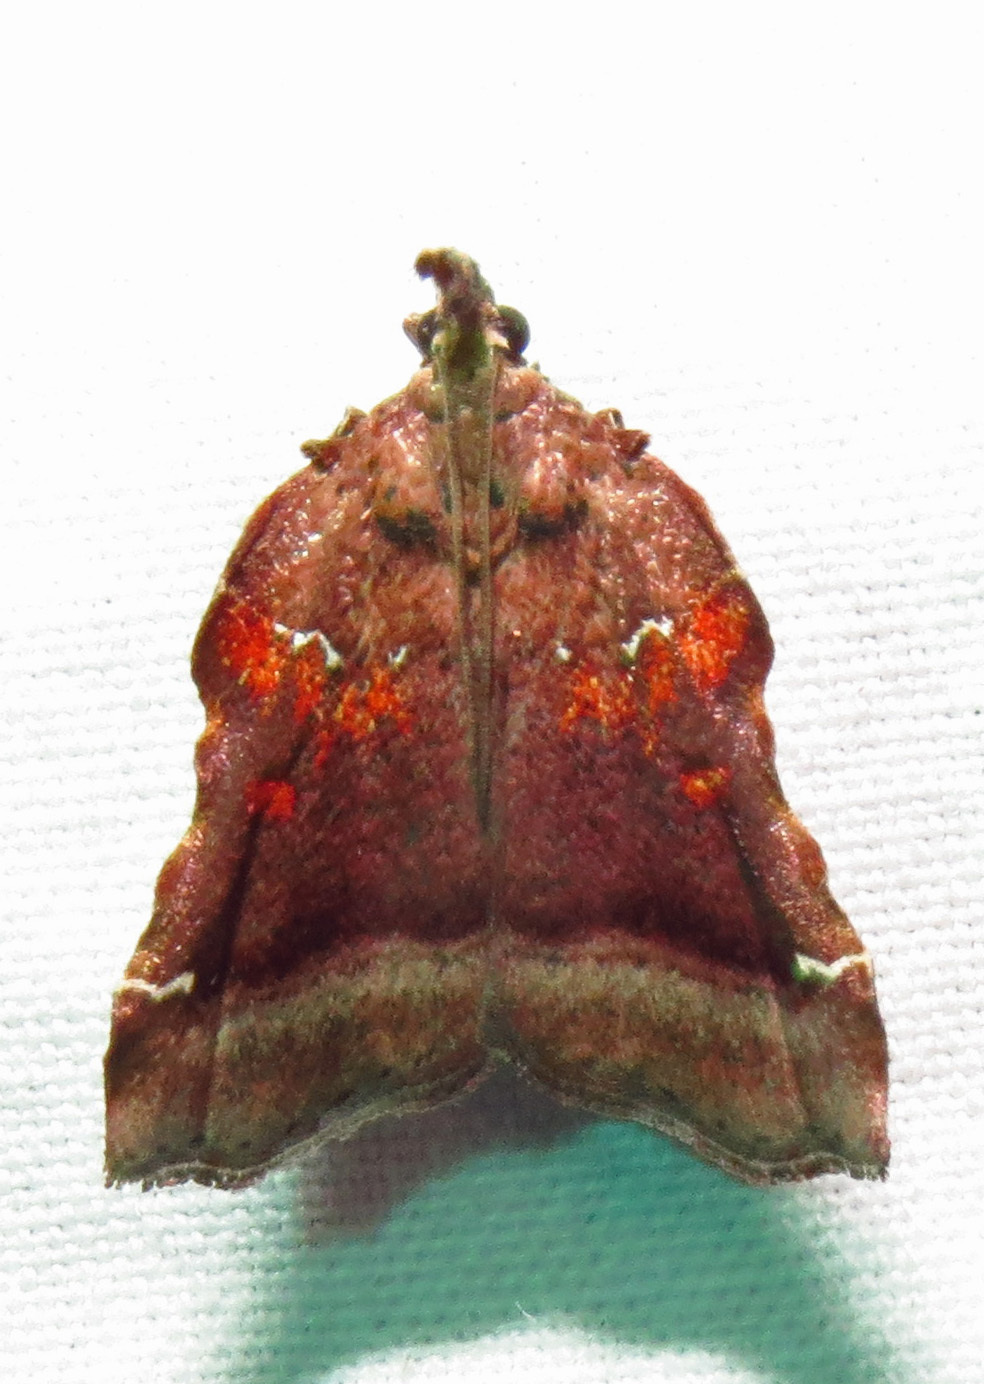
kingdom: Animalia
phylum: Arthropoda
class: Insecta
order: Lepidoptera
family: Pyralidae
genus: Clydonopteron
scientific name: Clydonopteron sacculana
